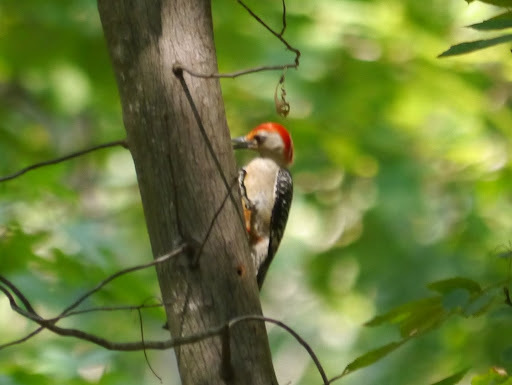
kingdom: Animalia
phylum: Chordata
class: Aves
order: Piciformes
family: Picidae
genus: Melanerpes
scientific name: Melanerpes carolinus
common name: Red-bellied woodpecker
